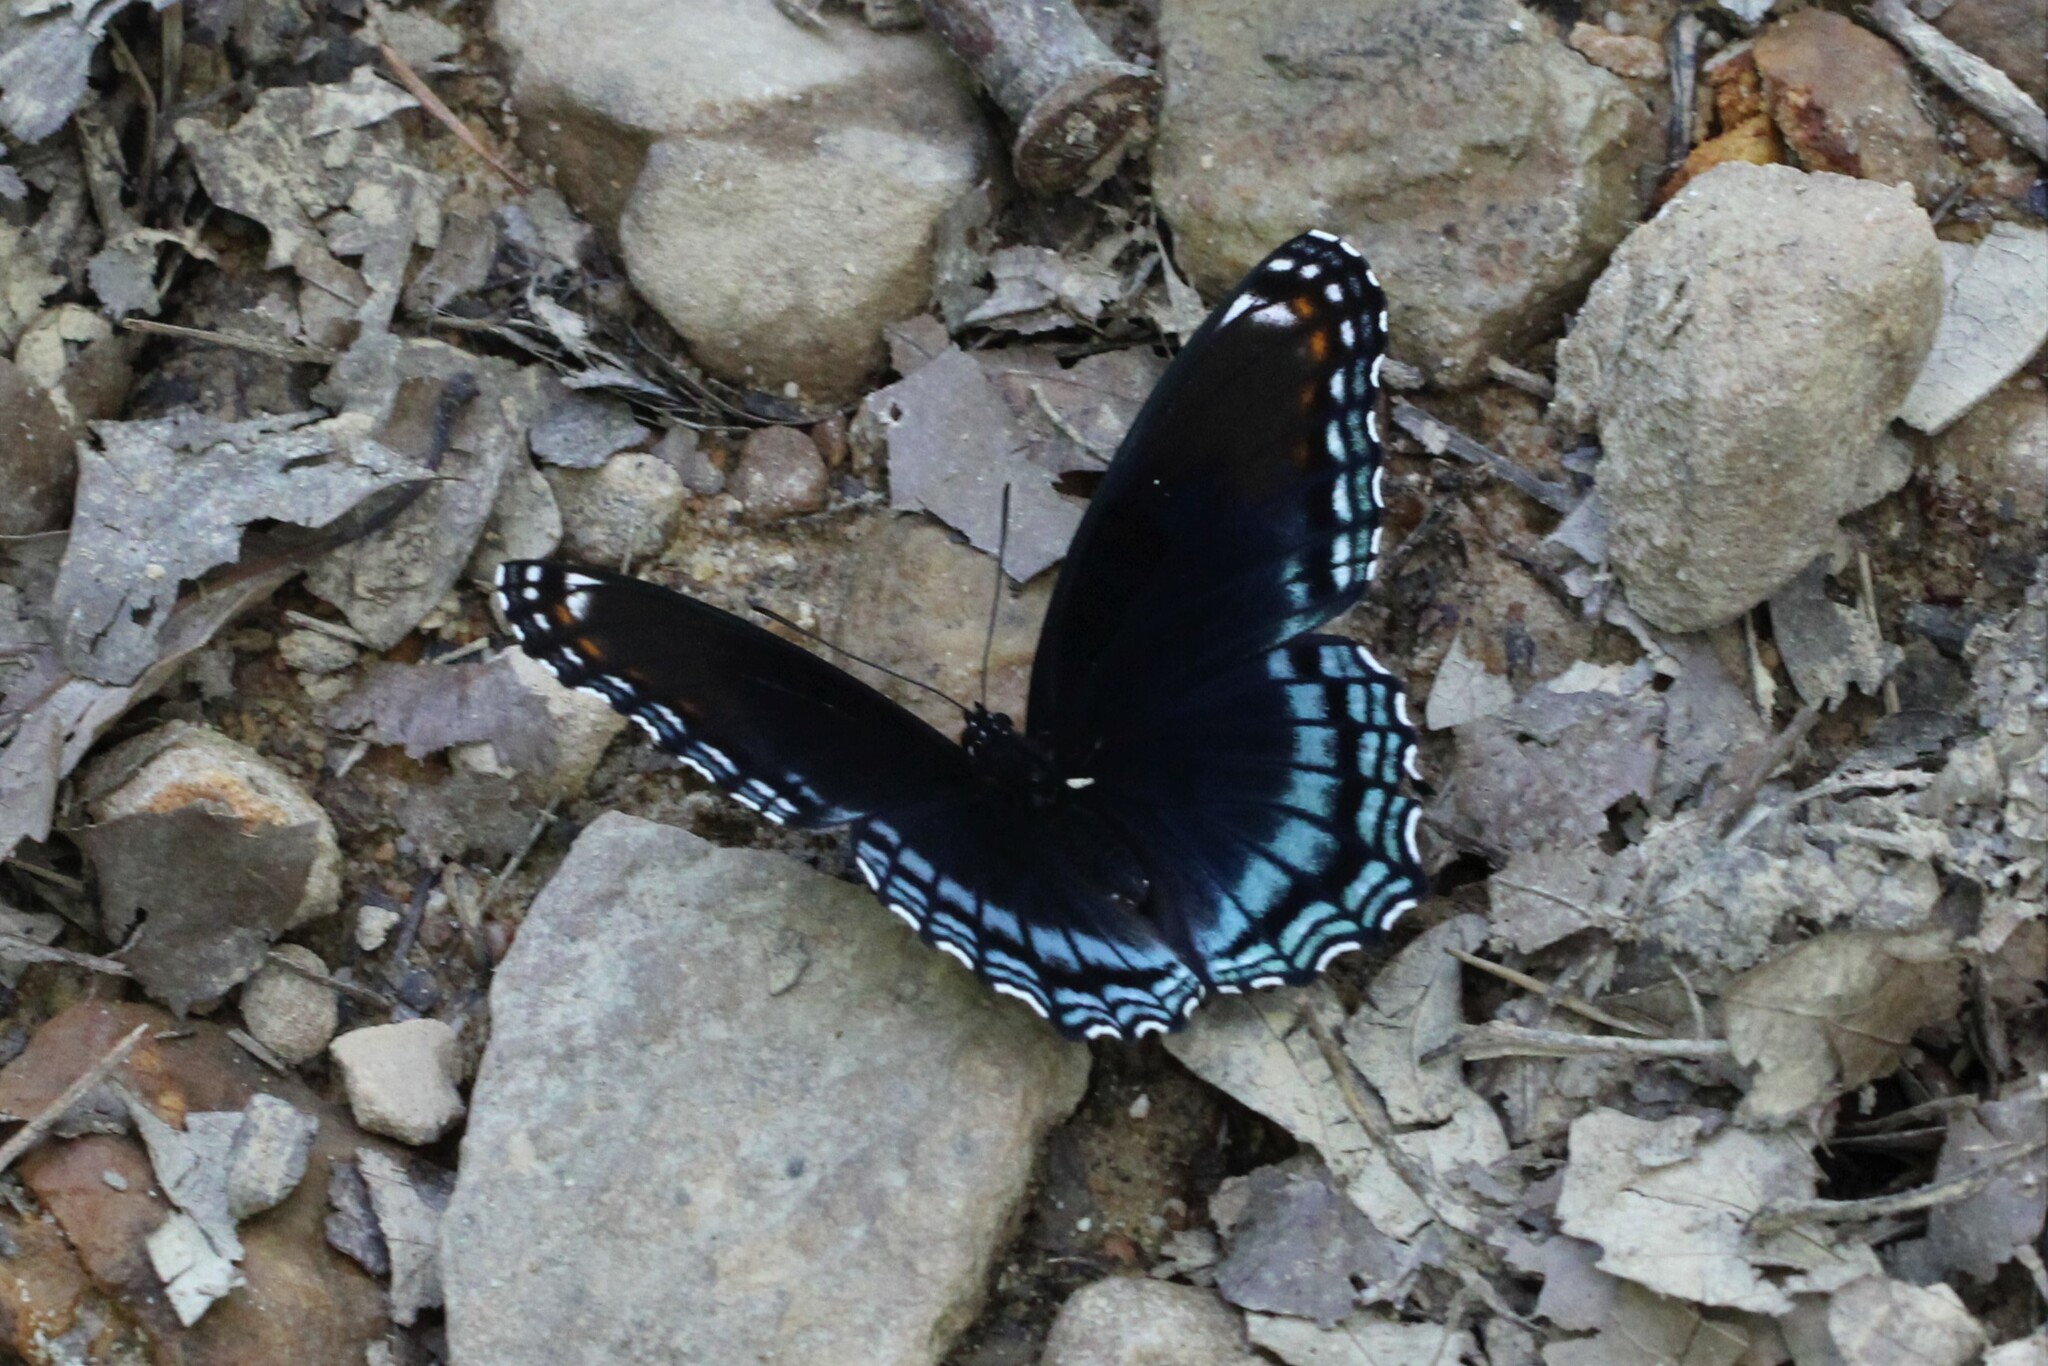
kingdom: Animalia
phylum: Arthropoda
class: Insecta
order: Lepidoptera
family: Nymphalidae
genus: Limenitis
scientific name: Limenitis astyanax
